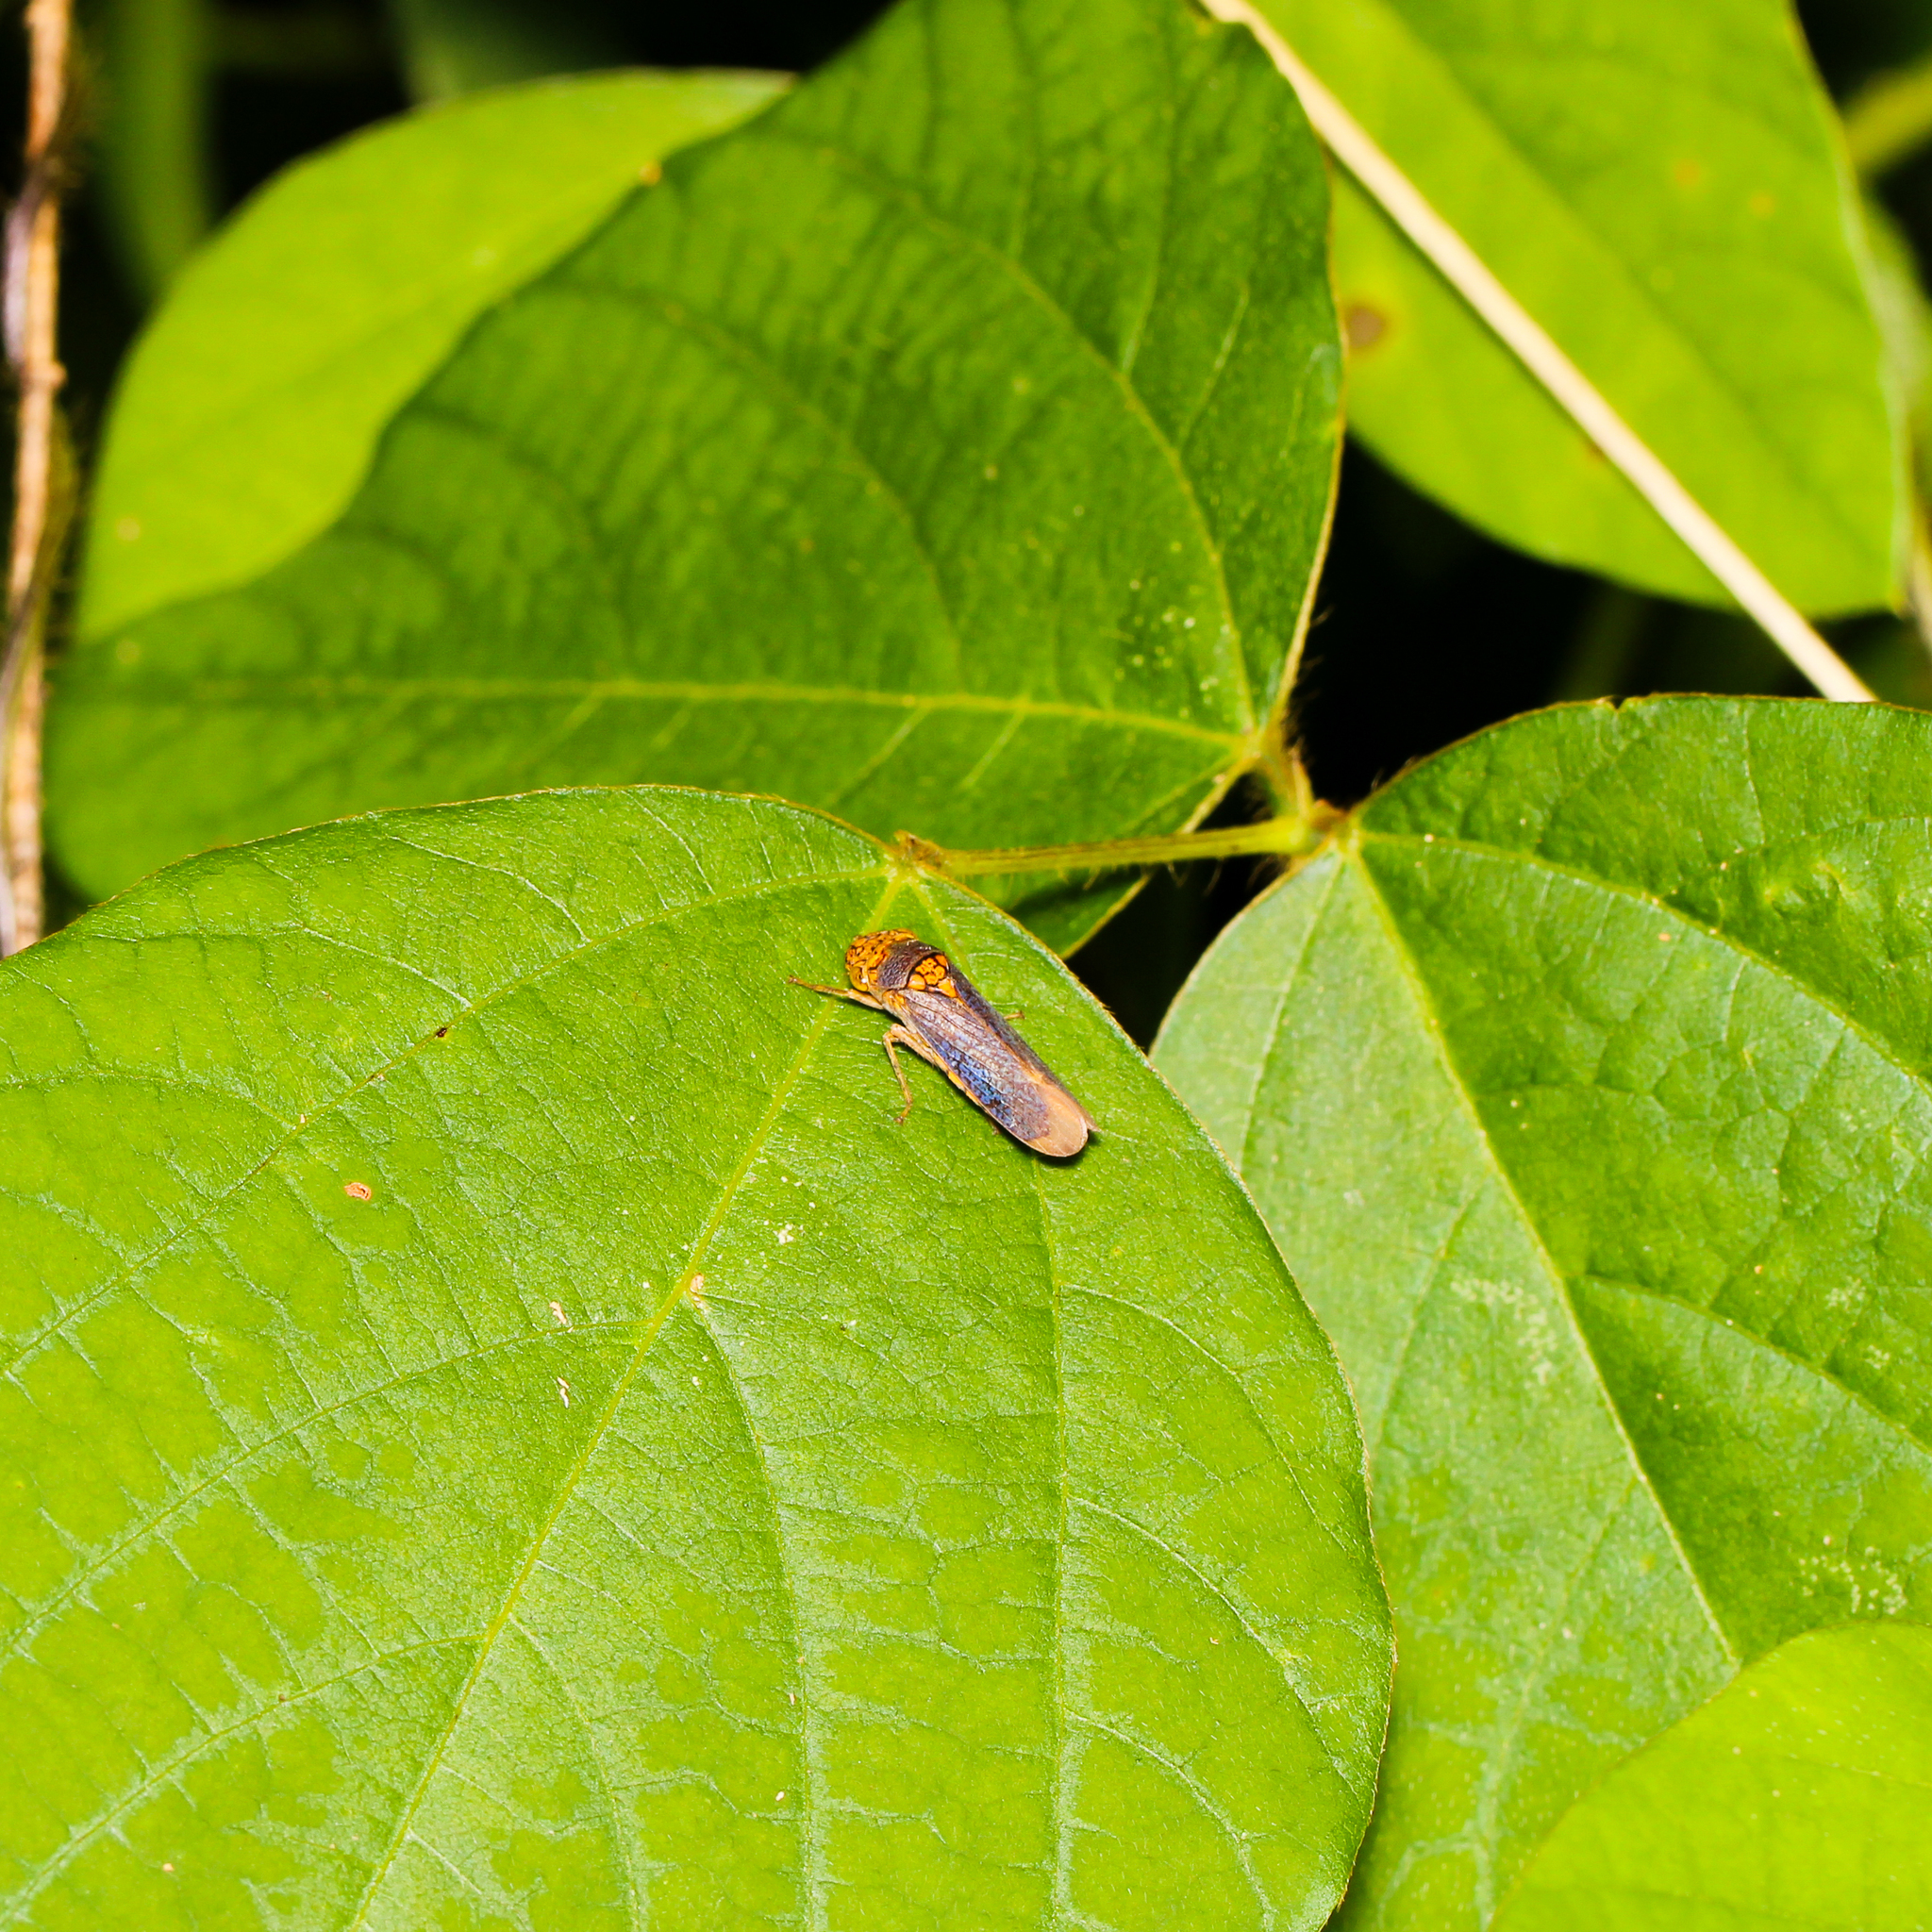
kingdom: Animalia
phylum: Arthropoda
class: Insecta
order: Hemiptera
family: Cicadellidae
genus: Oncometopia
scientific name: Oncometopia orbona
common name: Broad-headed sharpshooter
